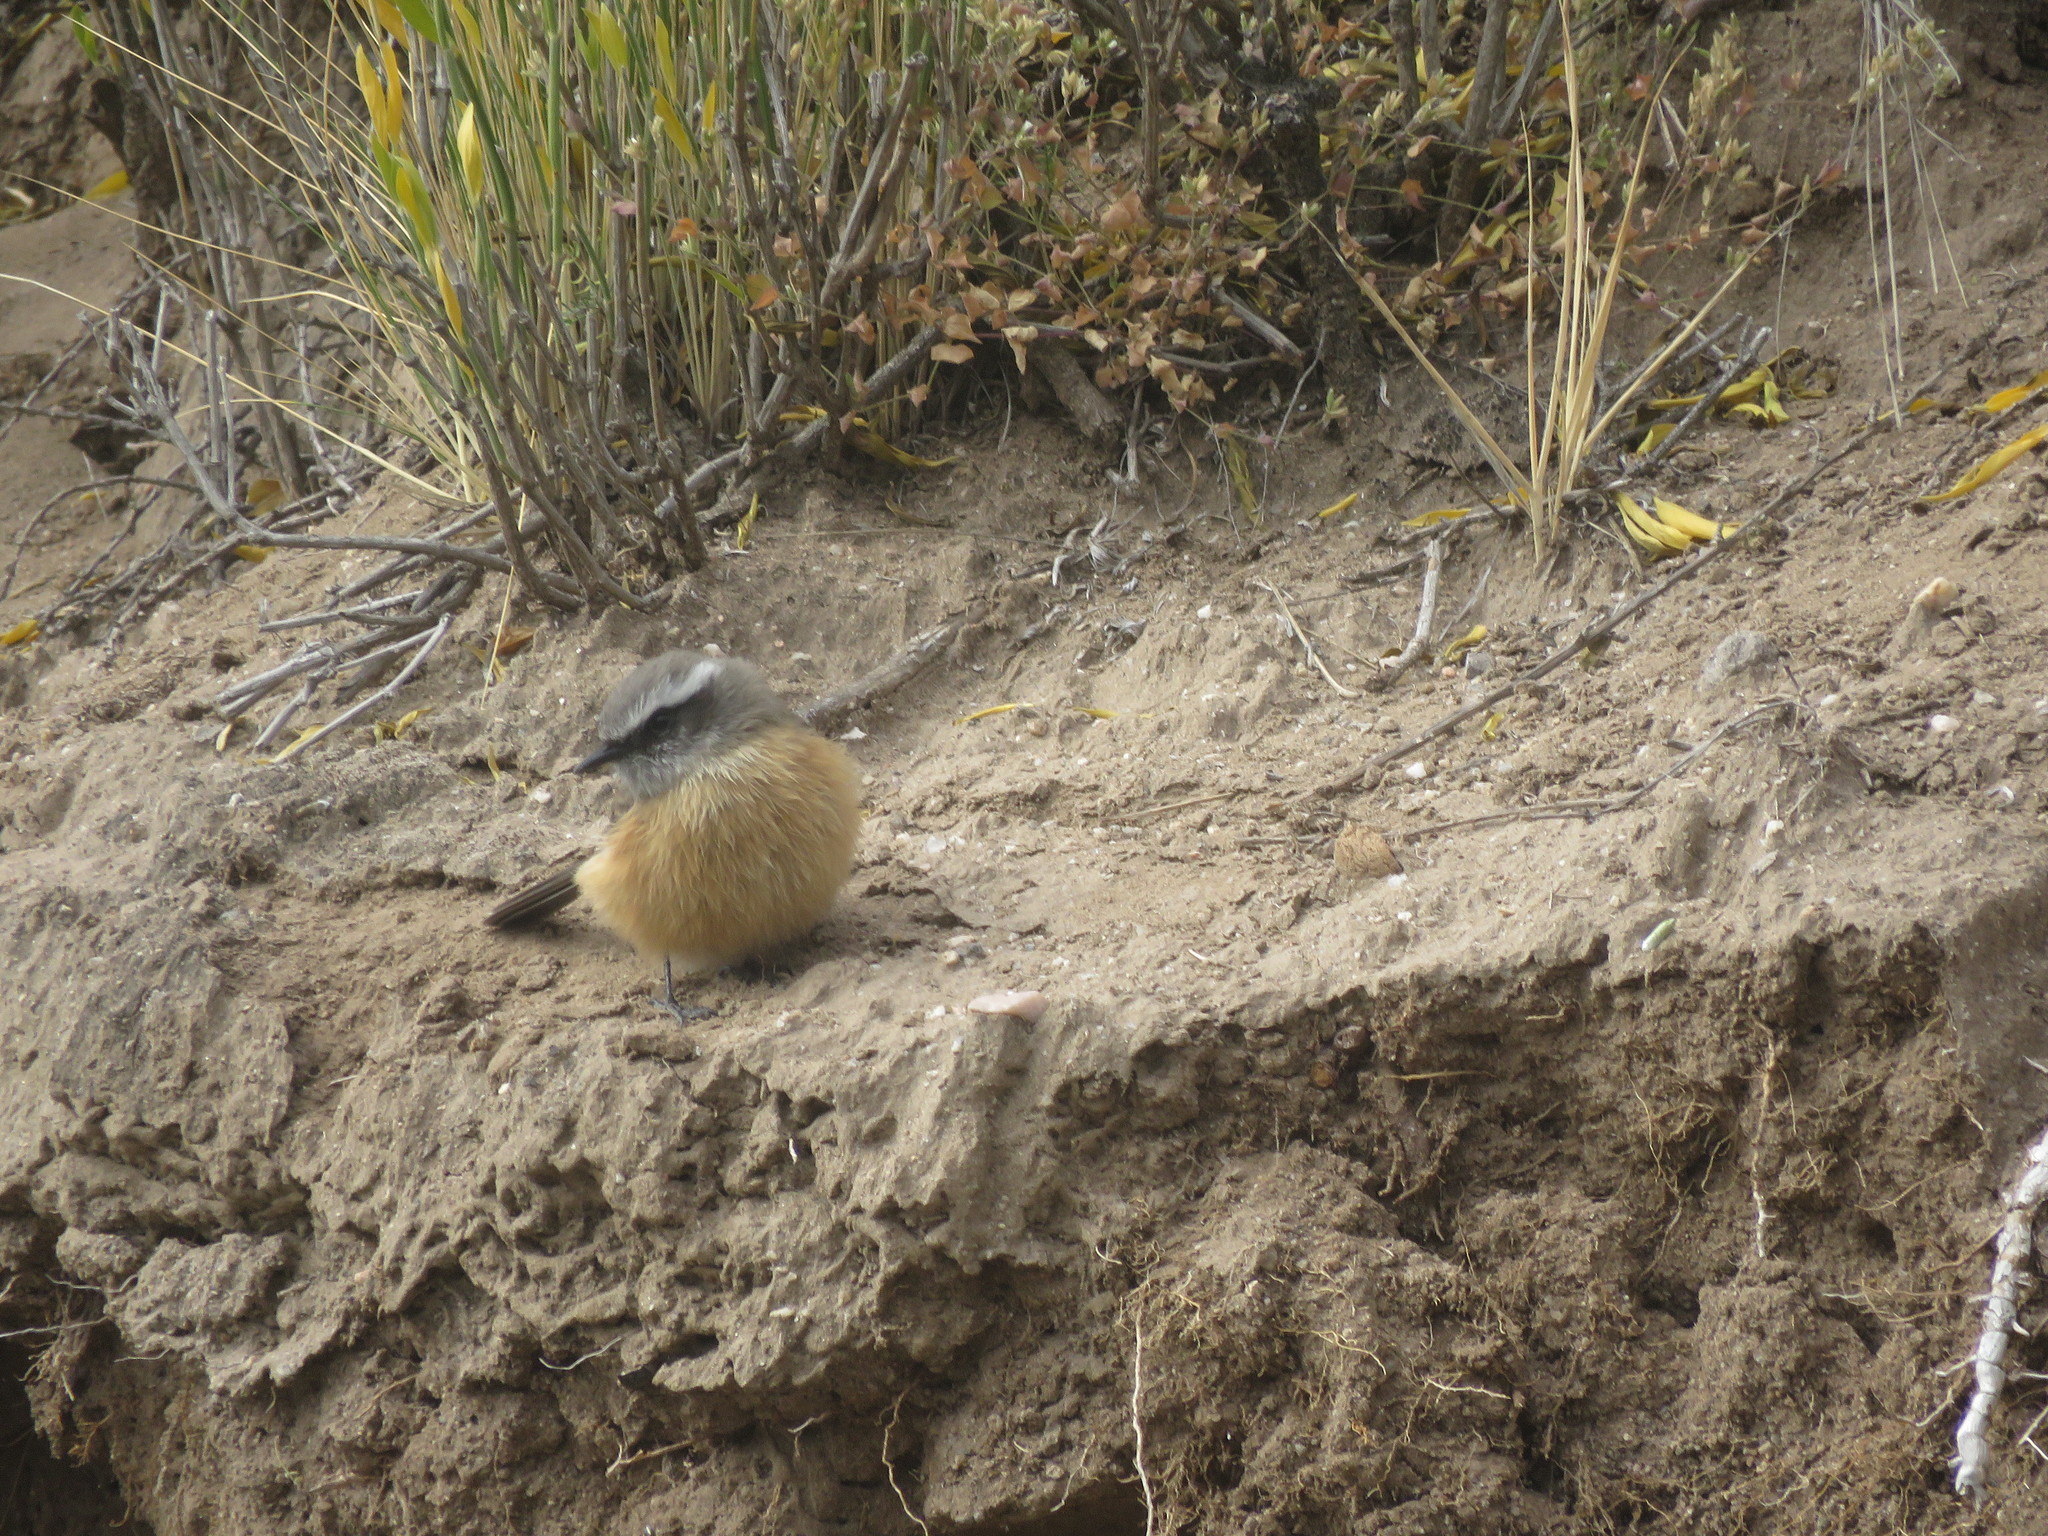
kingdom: Animalia
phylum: Chordata
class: Aves
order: Passeriformes
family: Tyrannidae
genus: Ochthoeca
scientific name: Ochthoeca oenanthoides
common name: D'orbigny's chat-tyrant
